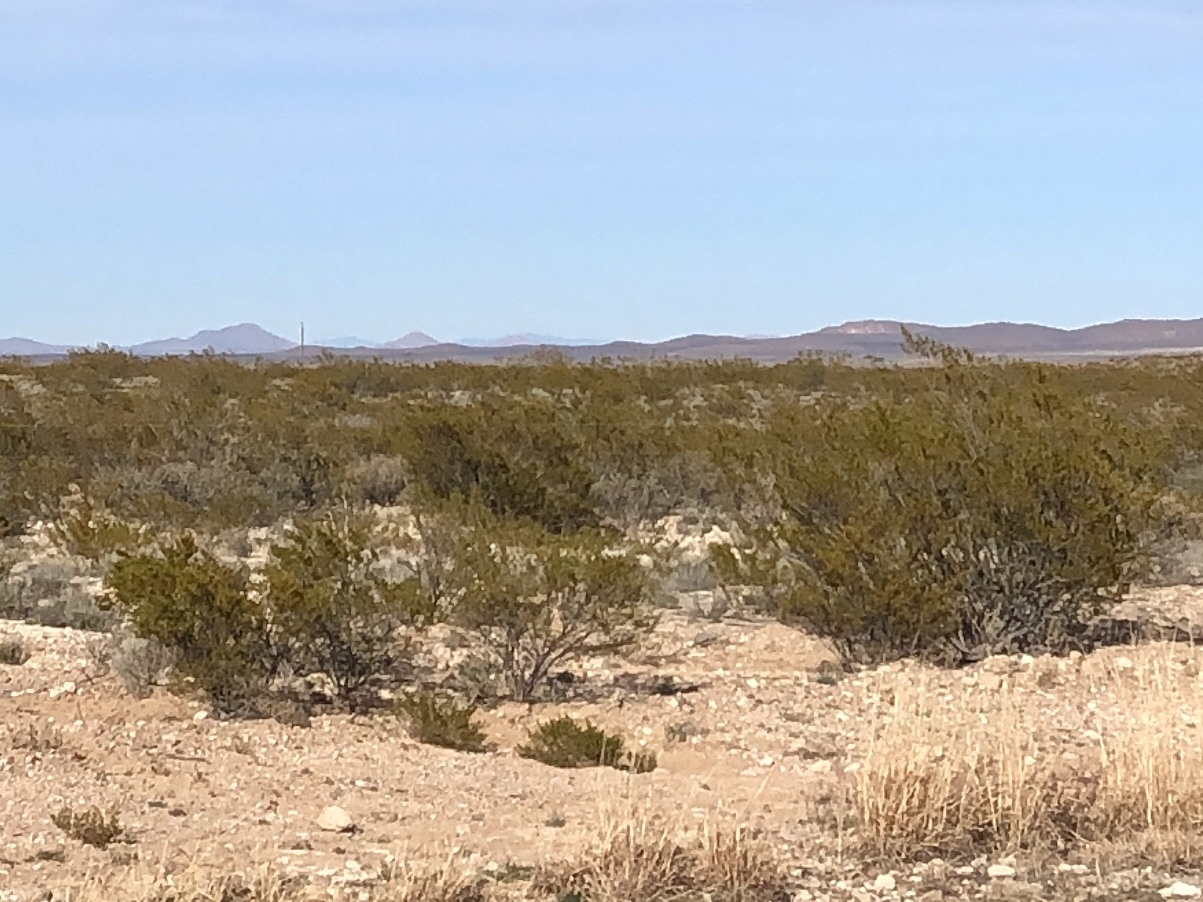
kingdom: Plantae
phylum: Tracheophyta
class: Magnoliopsida
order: Zygophyllales
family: Zygophyllaceae
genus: Larrea
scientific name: Larrea tridentata
